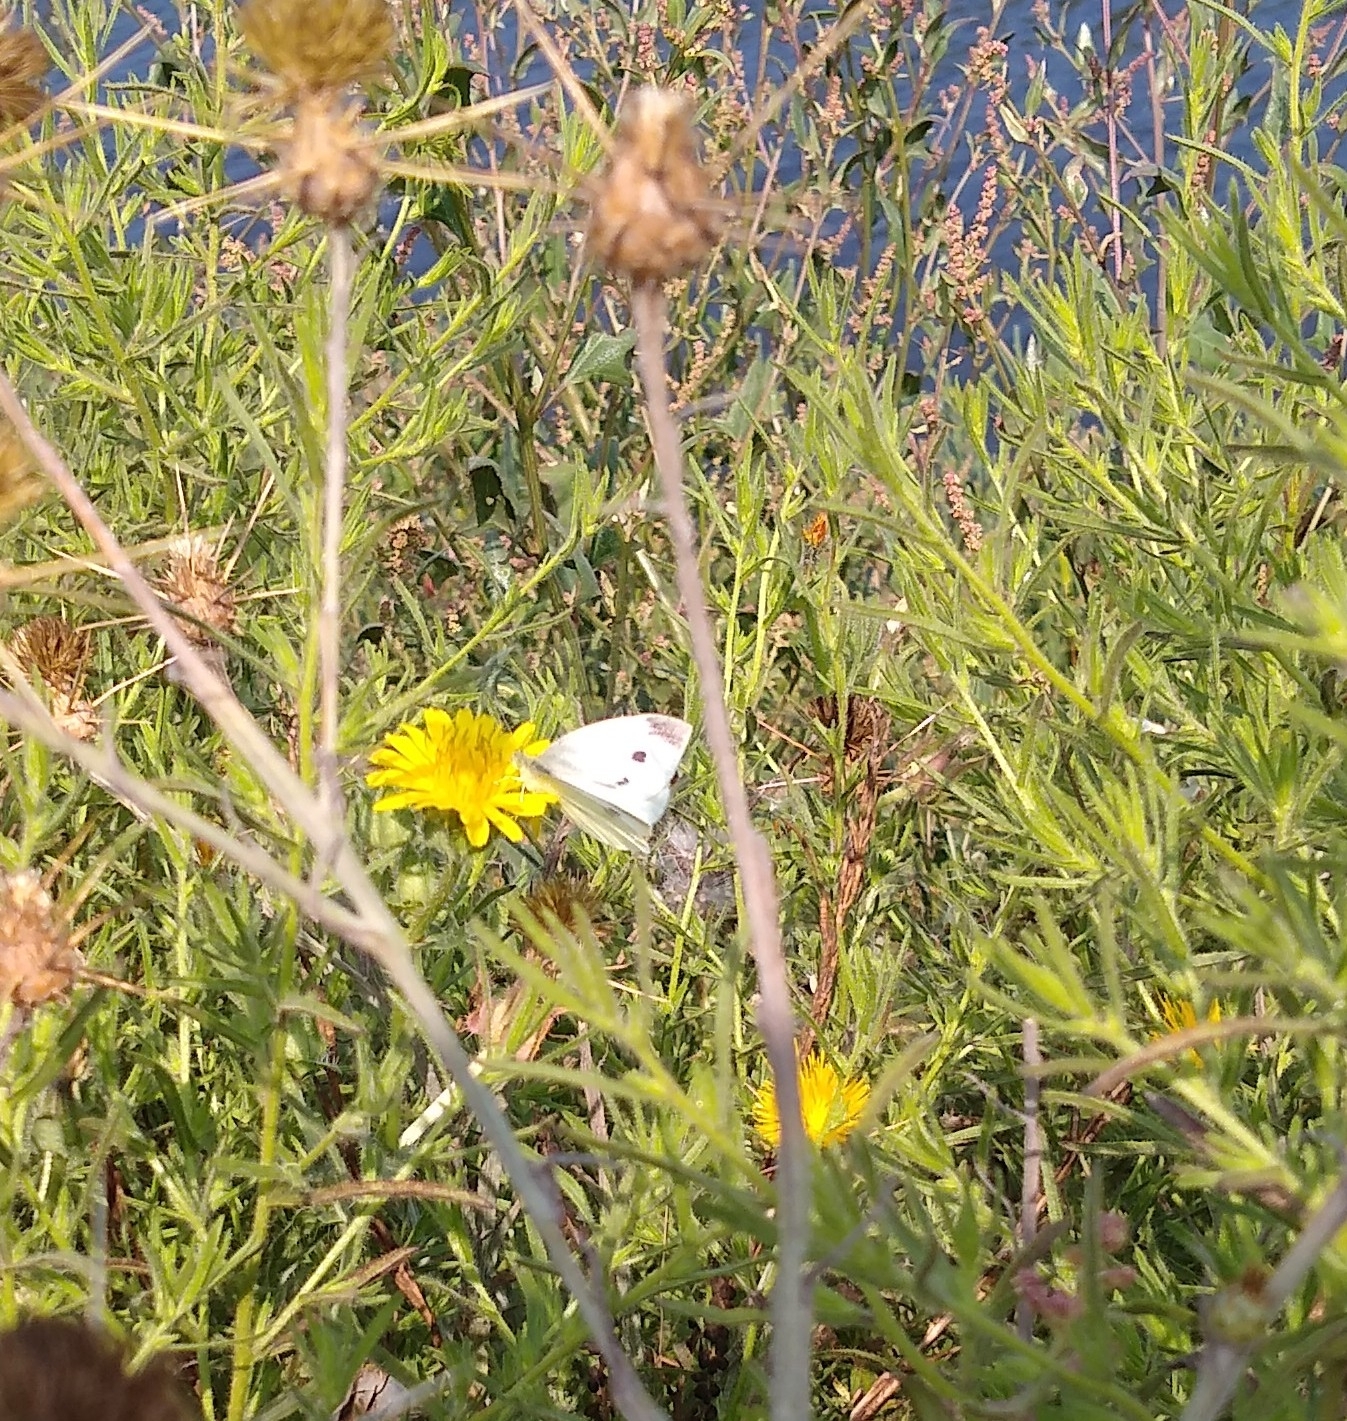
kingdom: Animalia
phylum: Arthropoda
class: Insecta
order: Lepidoptera
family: Pieridae
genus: Pieris
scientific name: Pieris rapae
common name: Small white
